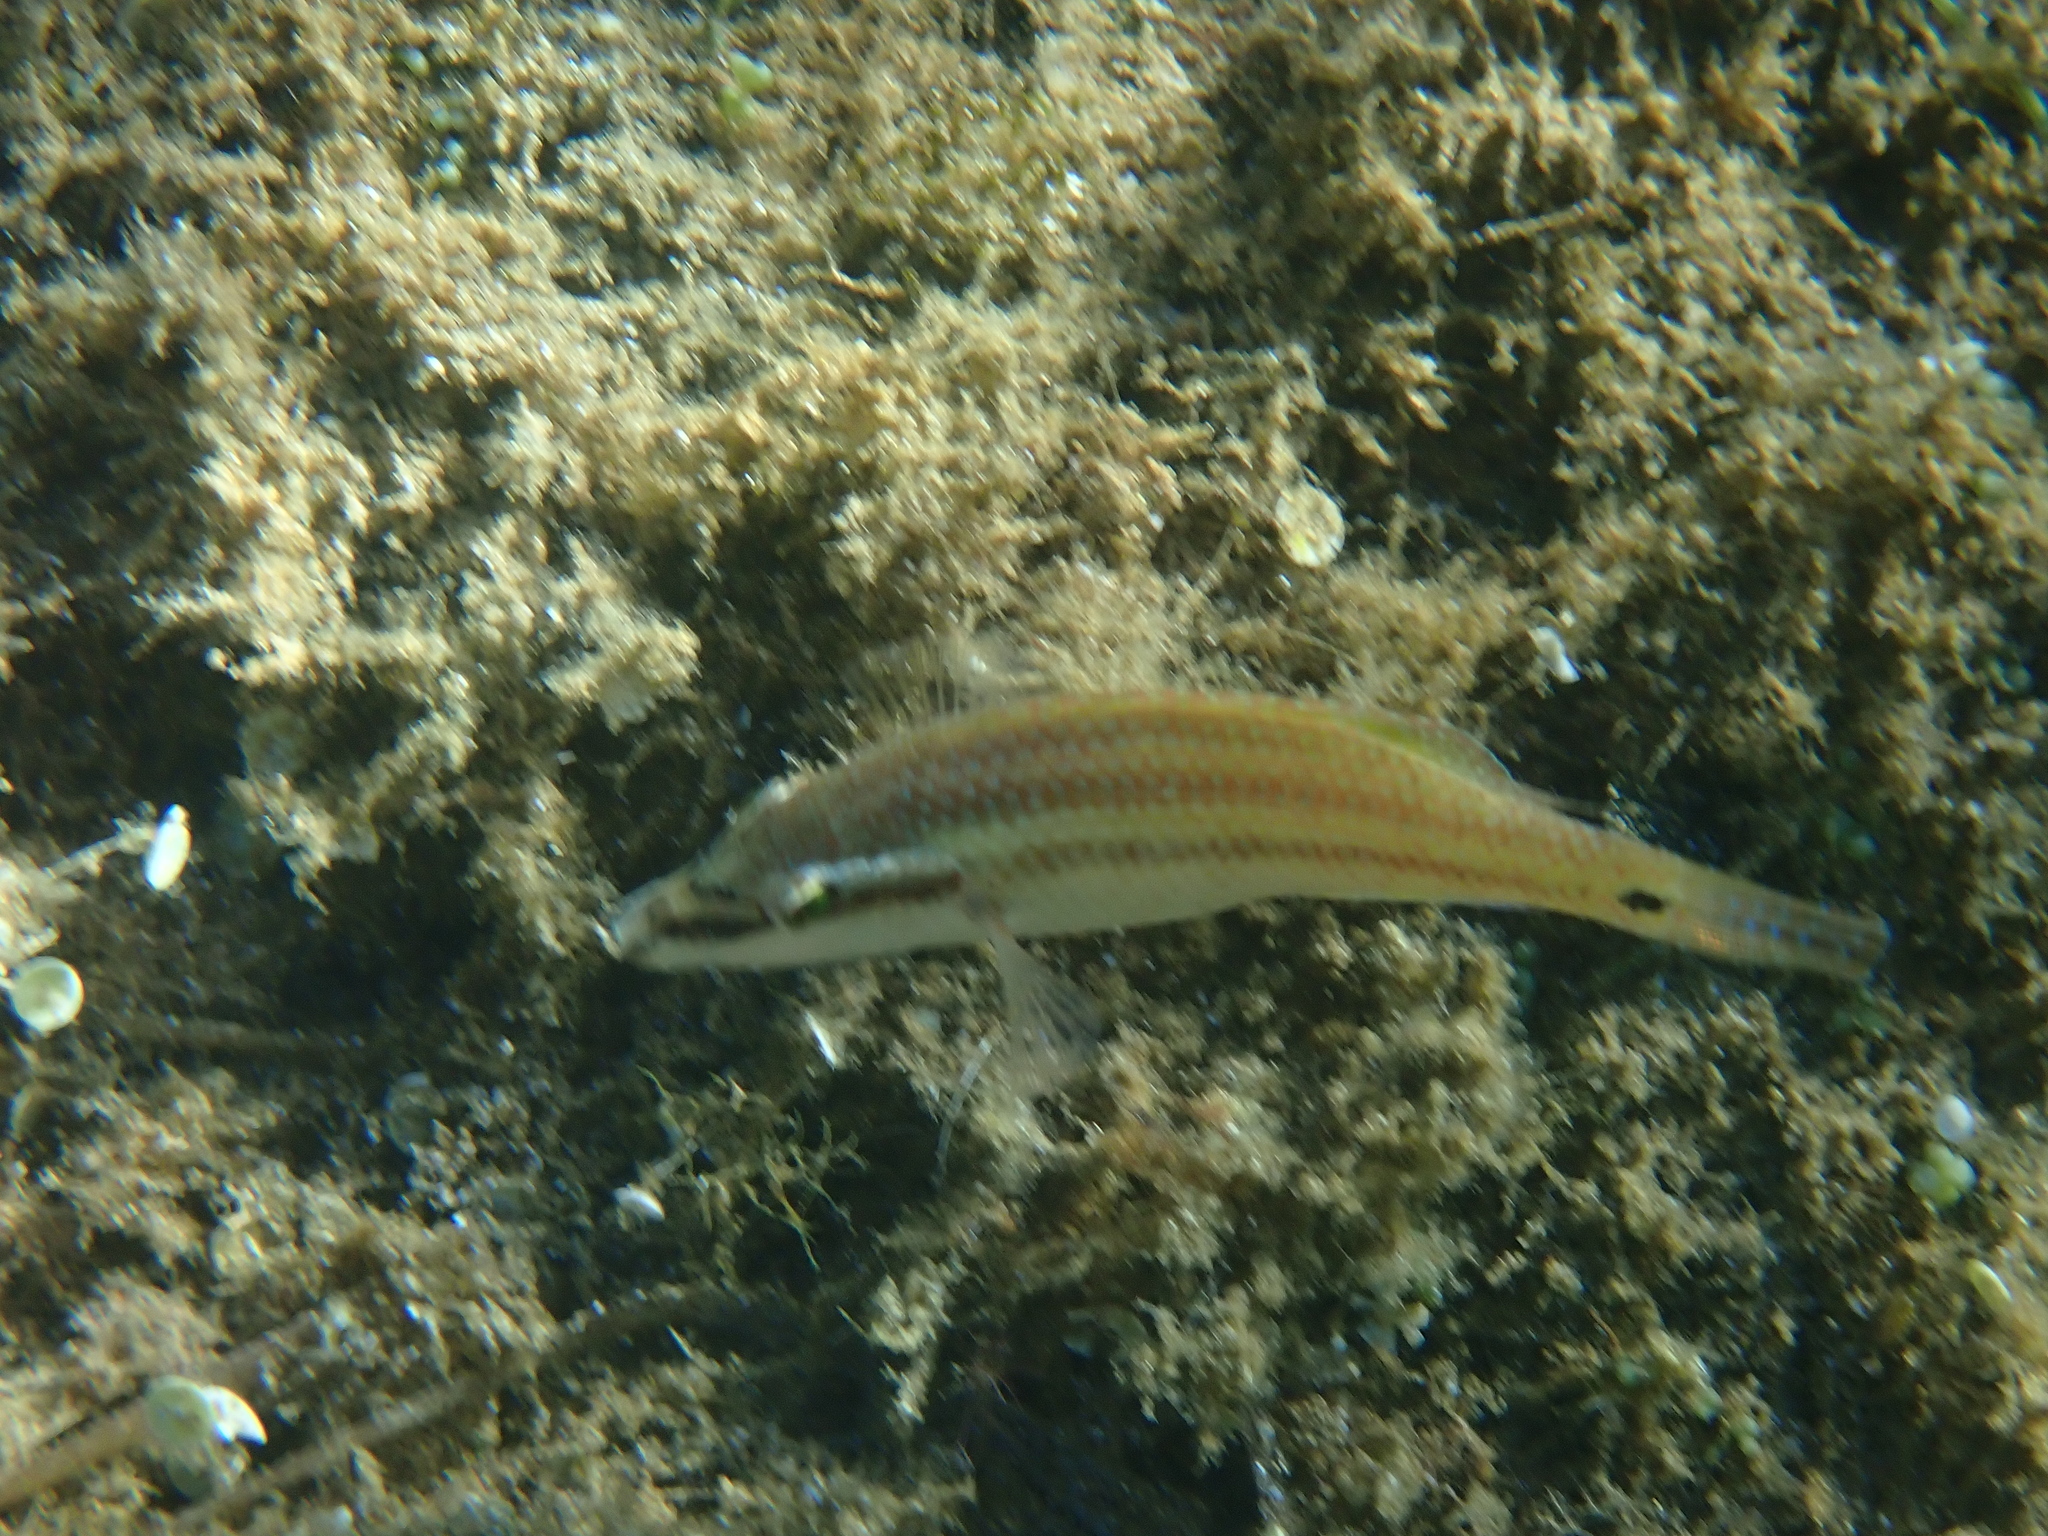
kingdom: Animalia
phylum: Chordata
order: Perciformes
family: Labridae
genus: Symphodus
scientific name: Symphodus tinca
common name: Peacock wrasse
